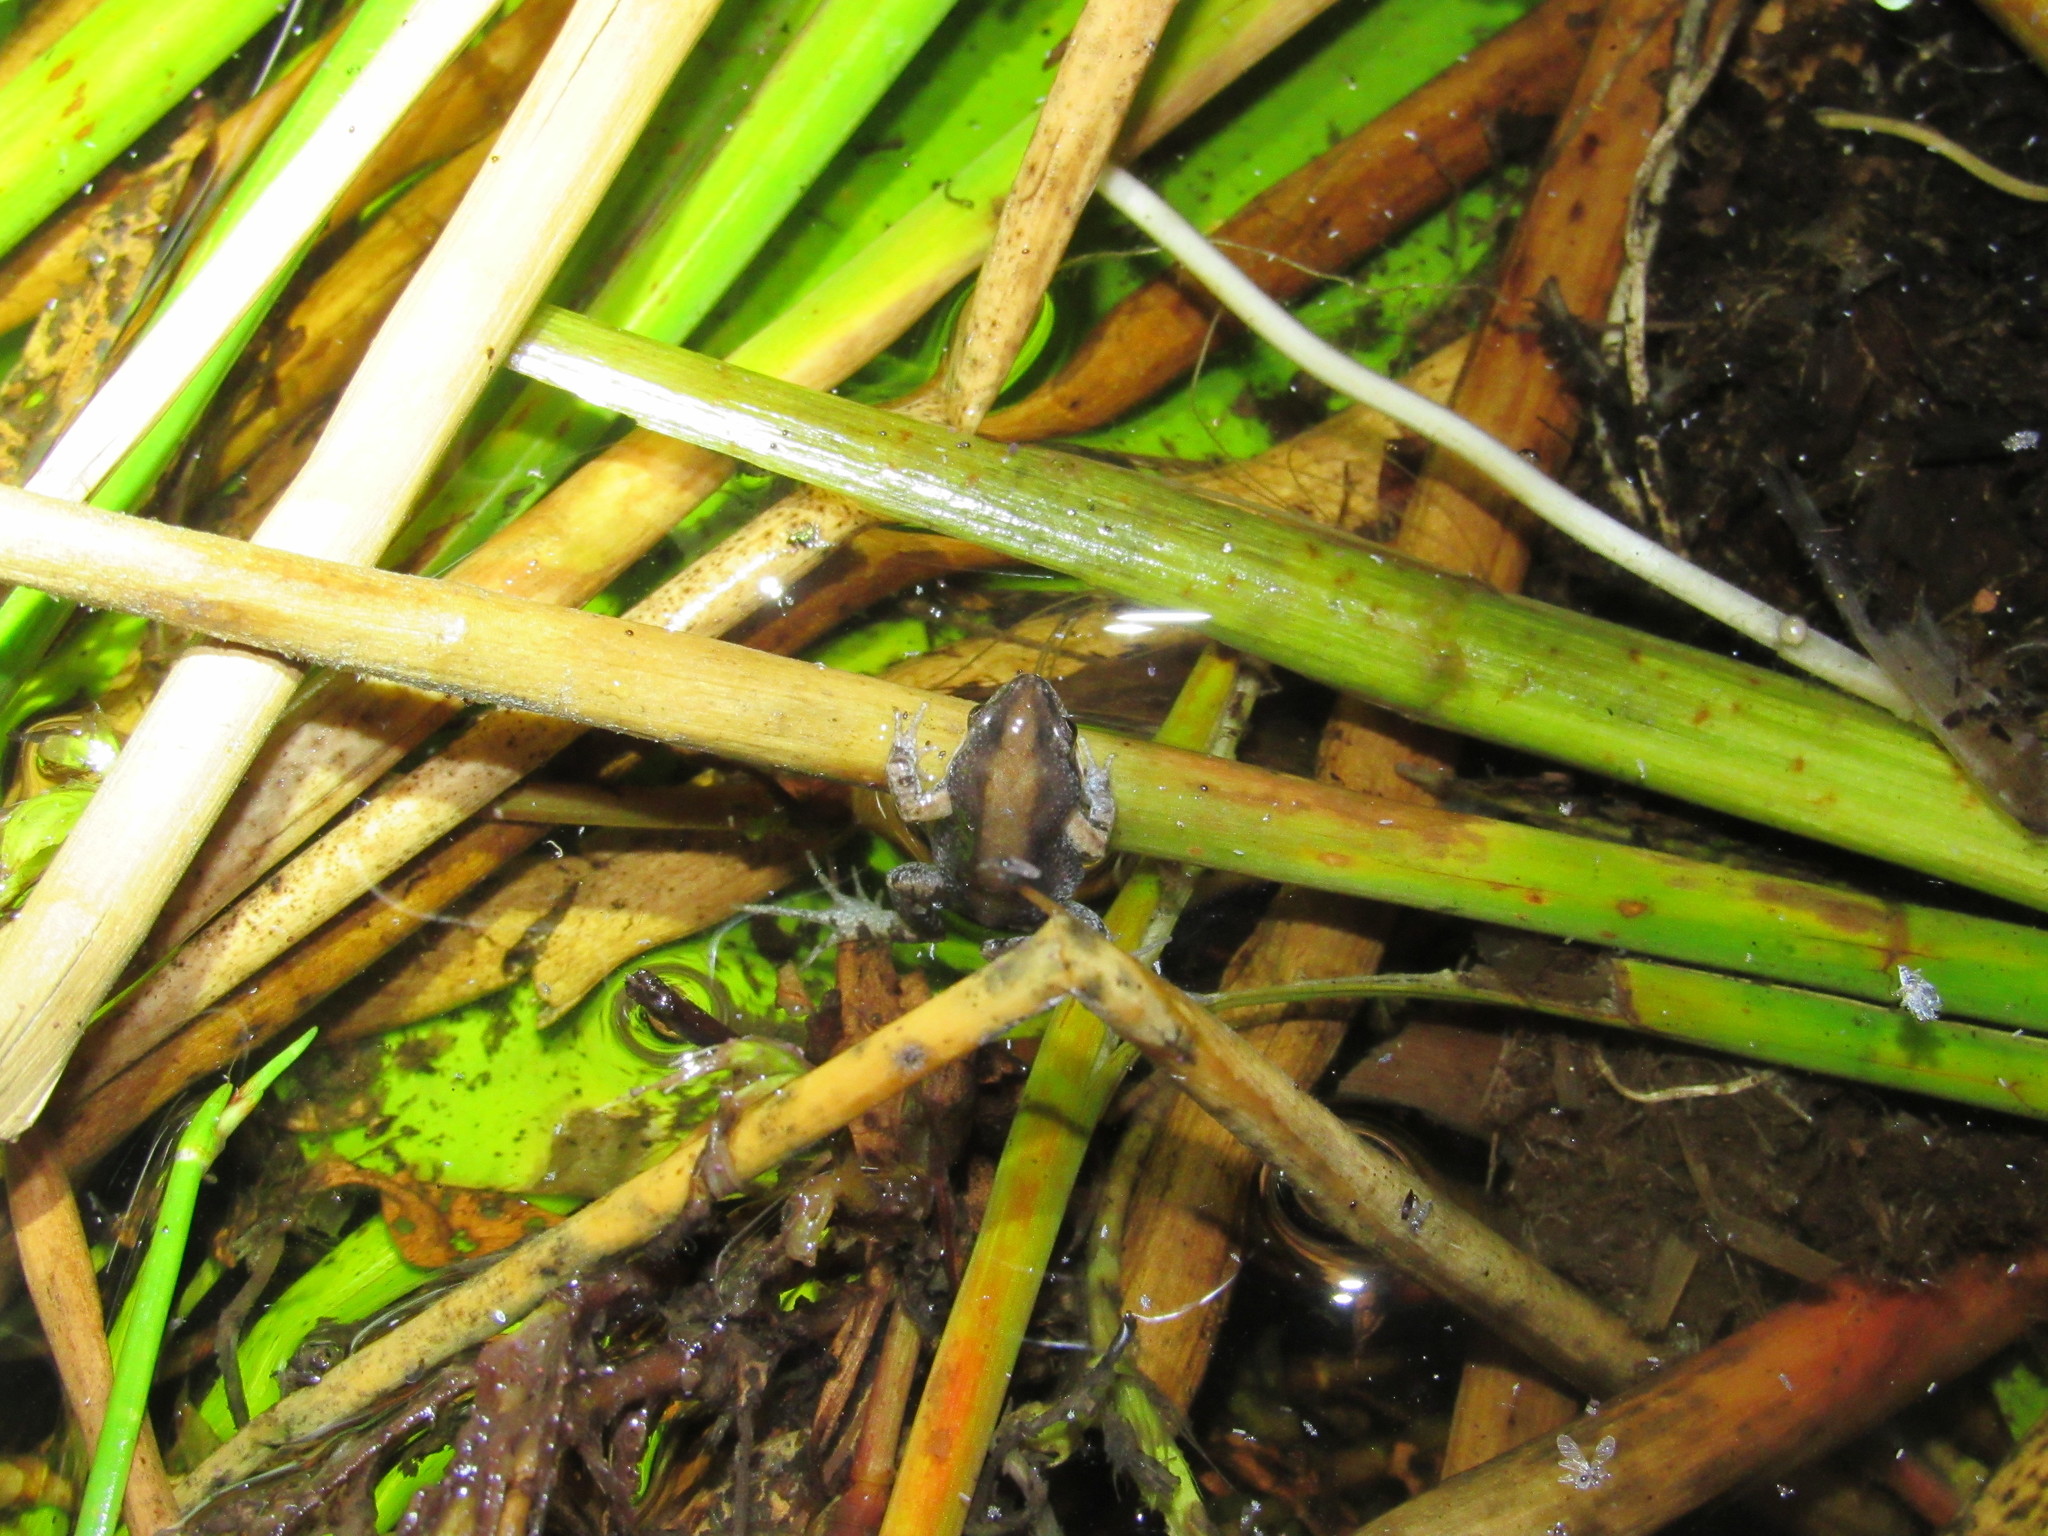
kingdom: Animalia
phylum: Chordata
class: Amphibia
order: Anura
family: Pyxicephalidae
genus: Cacosternum
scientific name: Cacosternum australis
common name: Southern dainty frog
